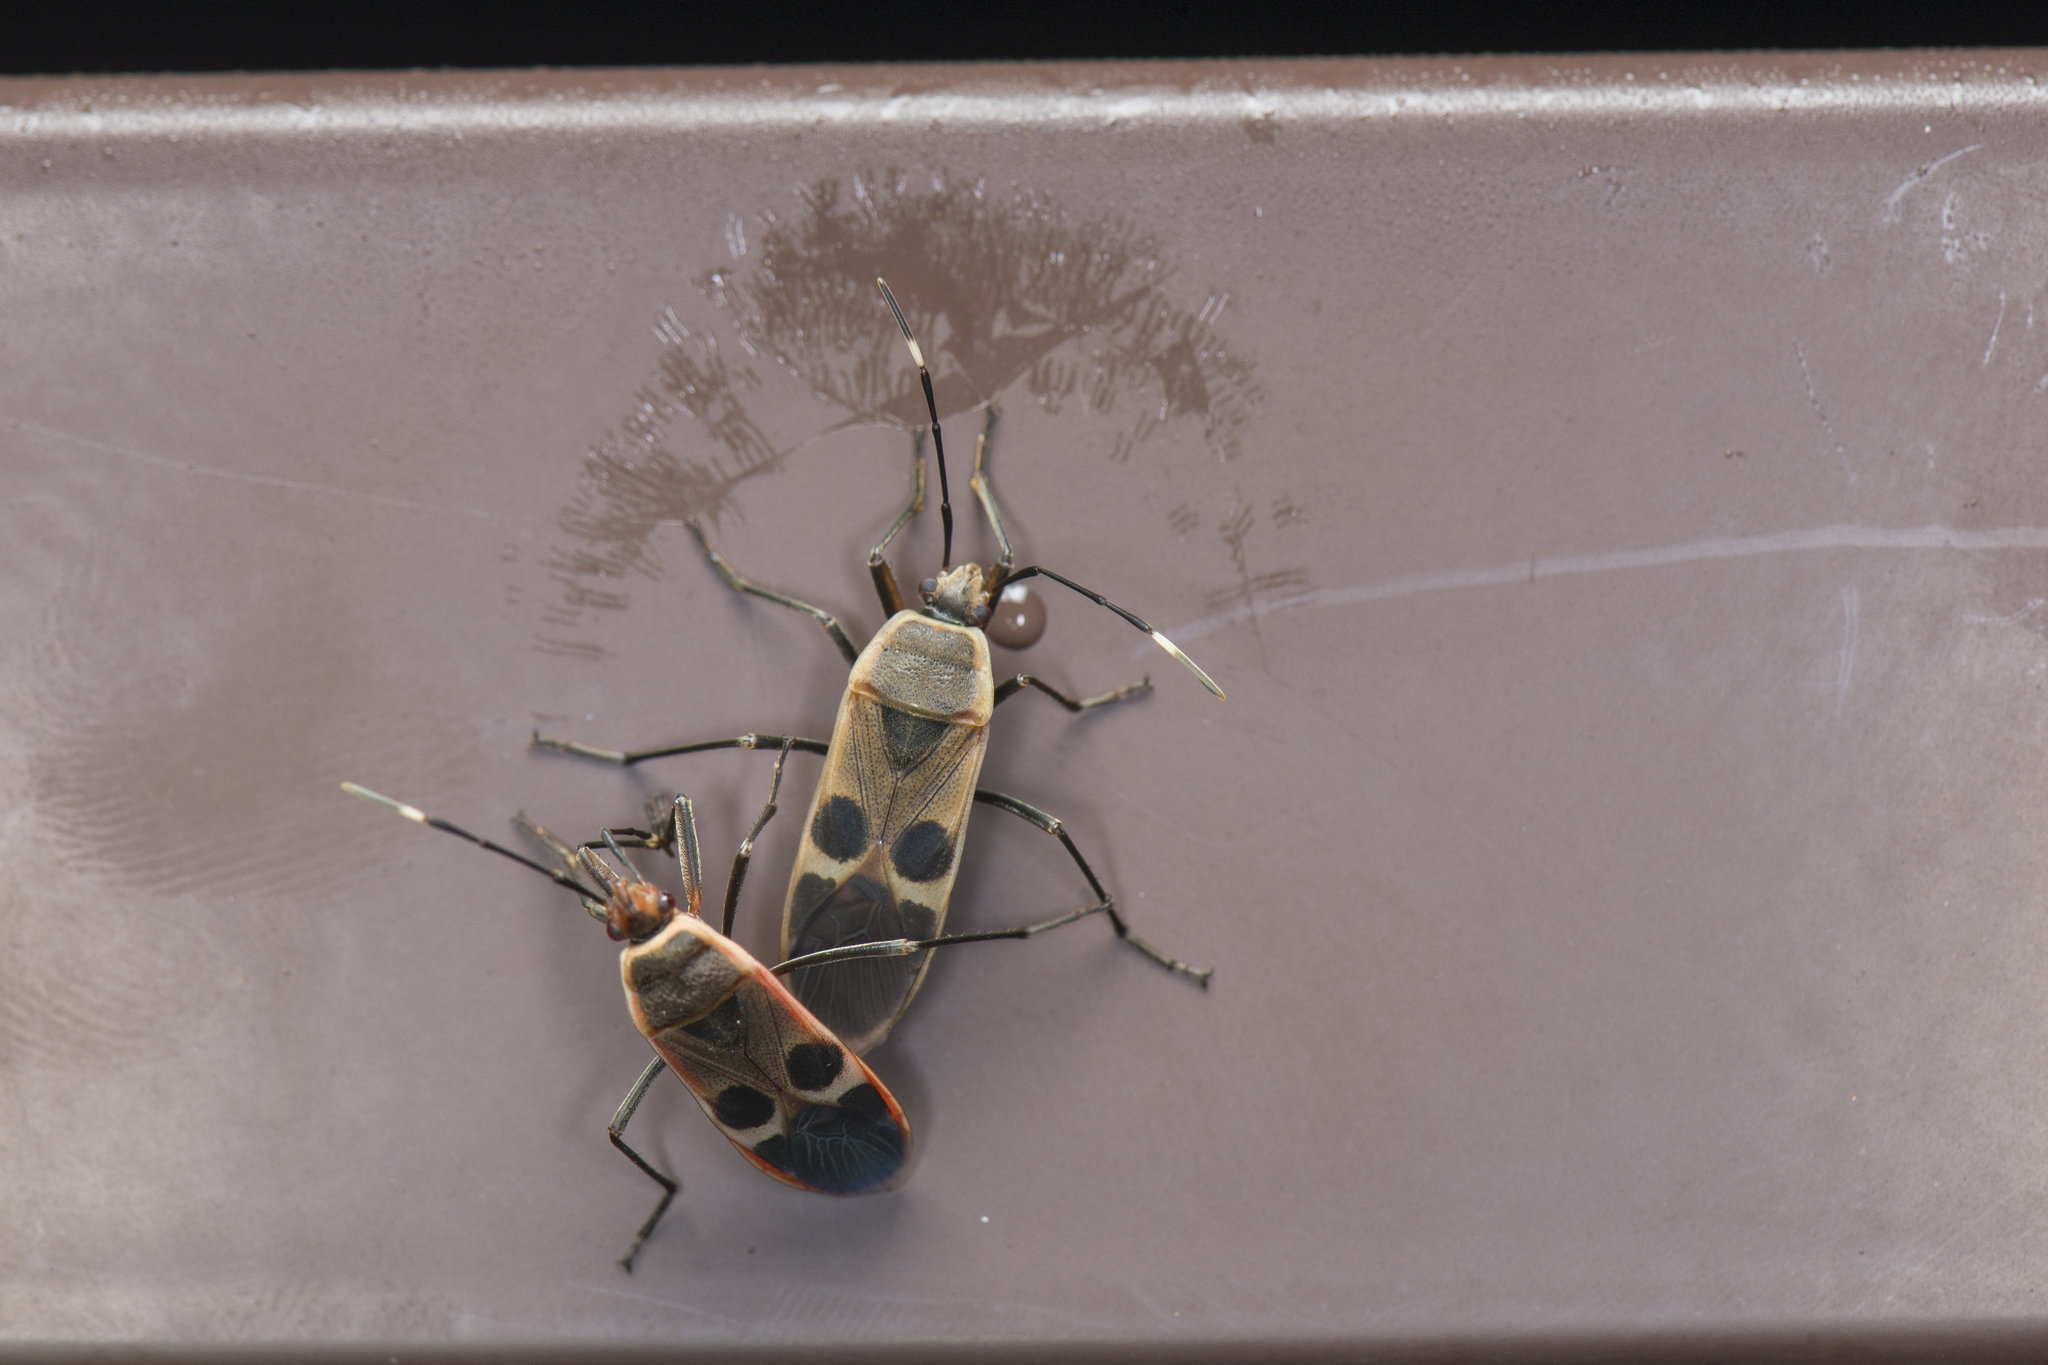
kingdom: Animalia
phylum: Arthropoda
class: Insecta
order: Hemiptera
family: Largidae
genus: Physopelta
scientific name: Physopelta gutta
